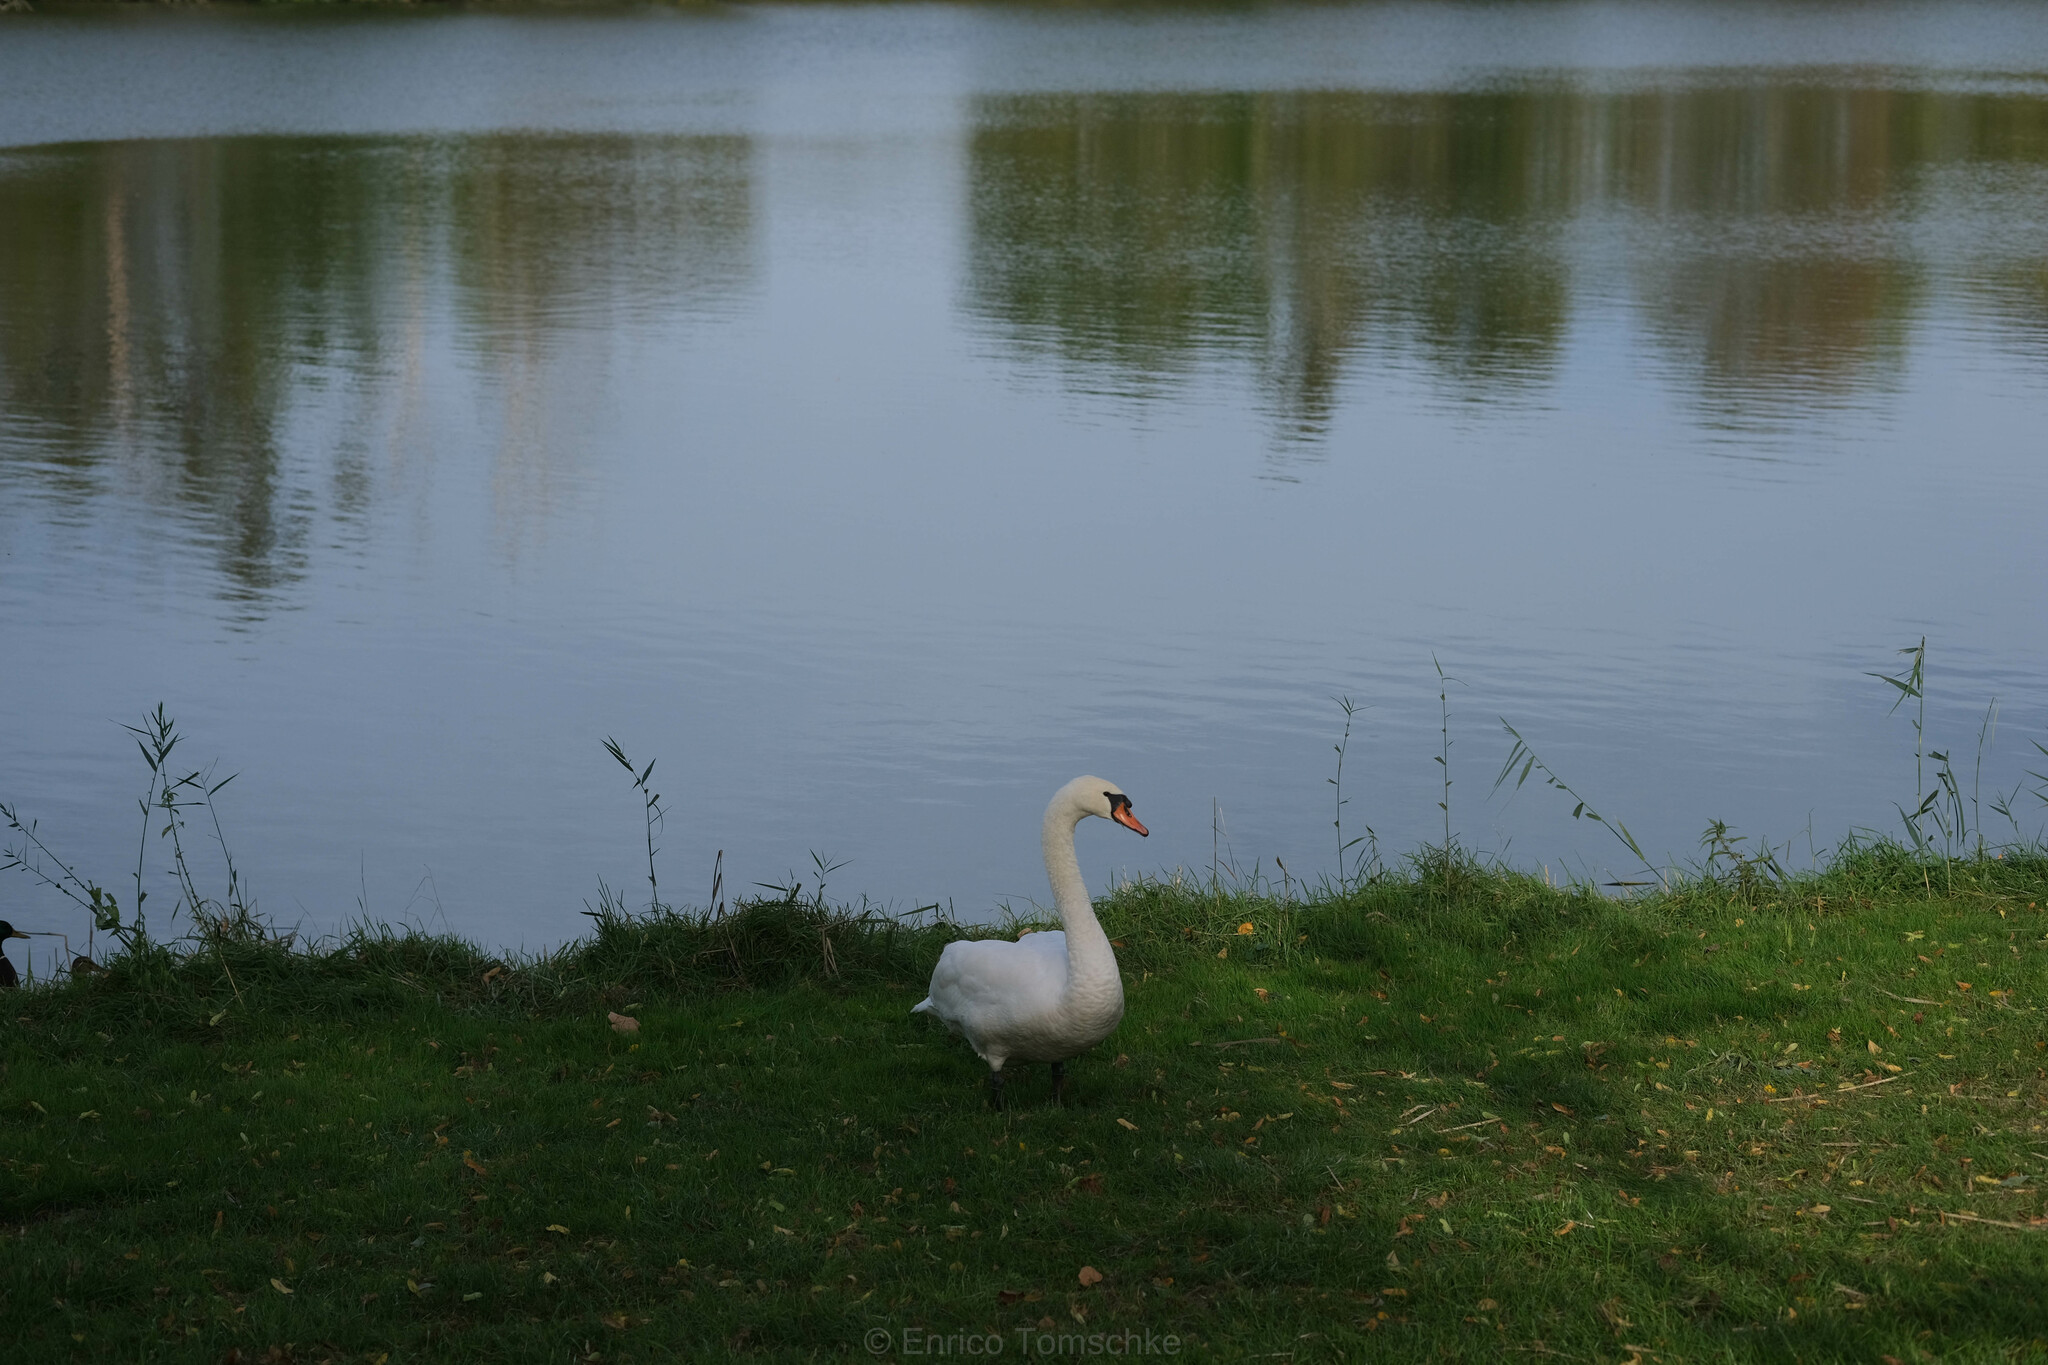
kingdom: Animalia
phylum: Chordata
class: Aves
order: Anseriformes
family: Anatidae
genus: Cygnus
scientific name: Cygnus olor
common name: Mute swan
